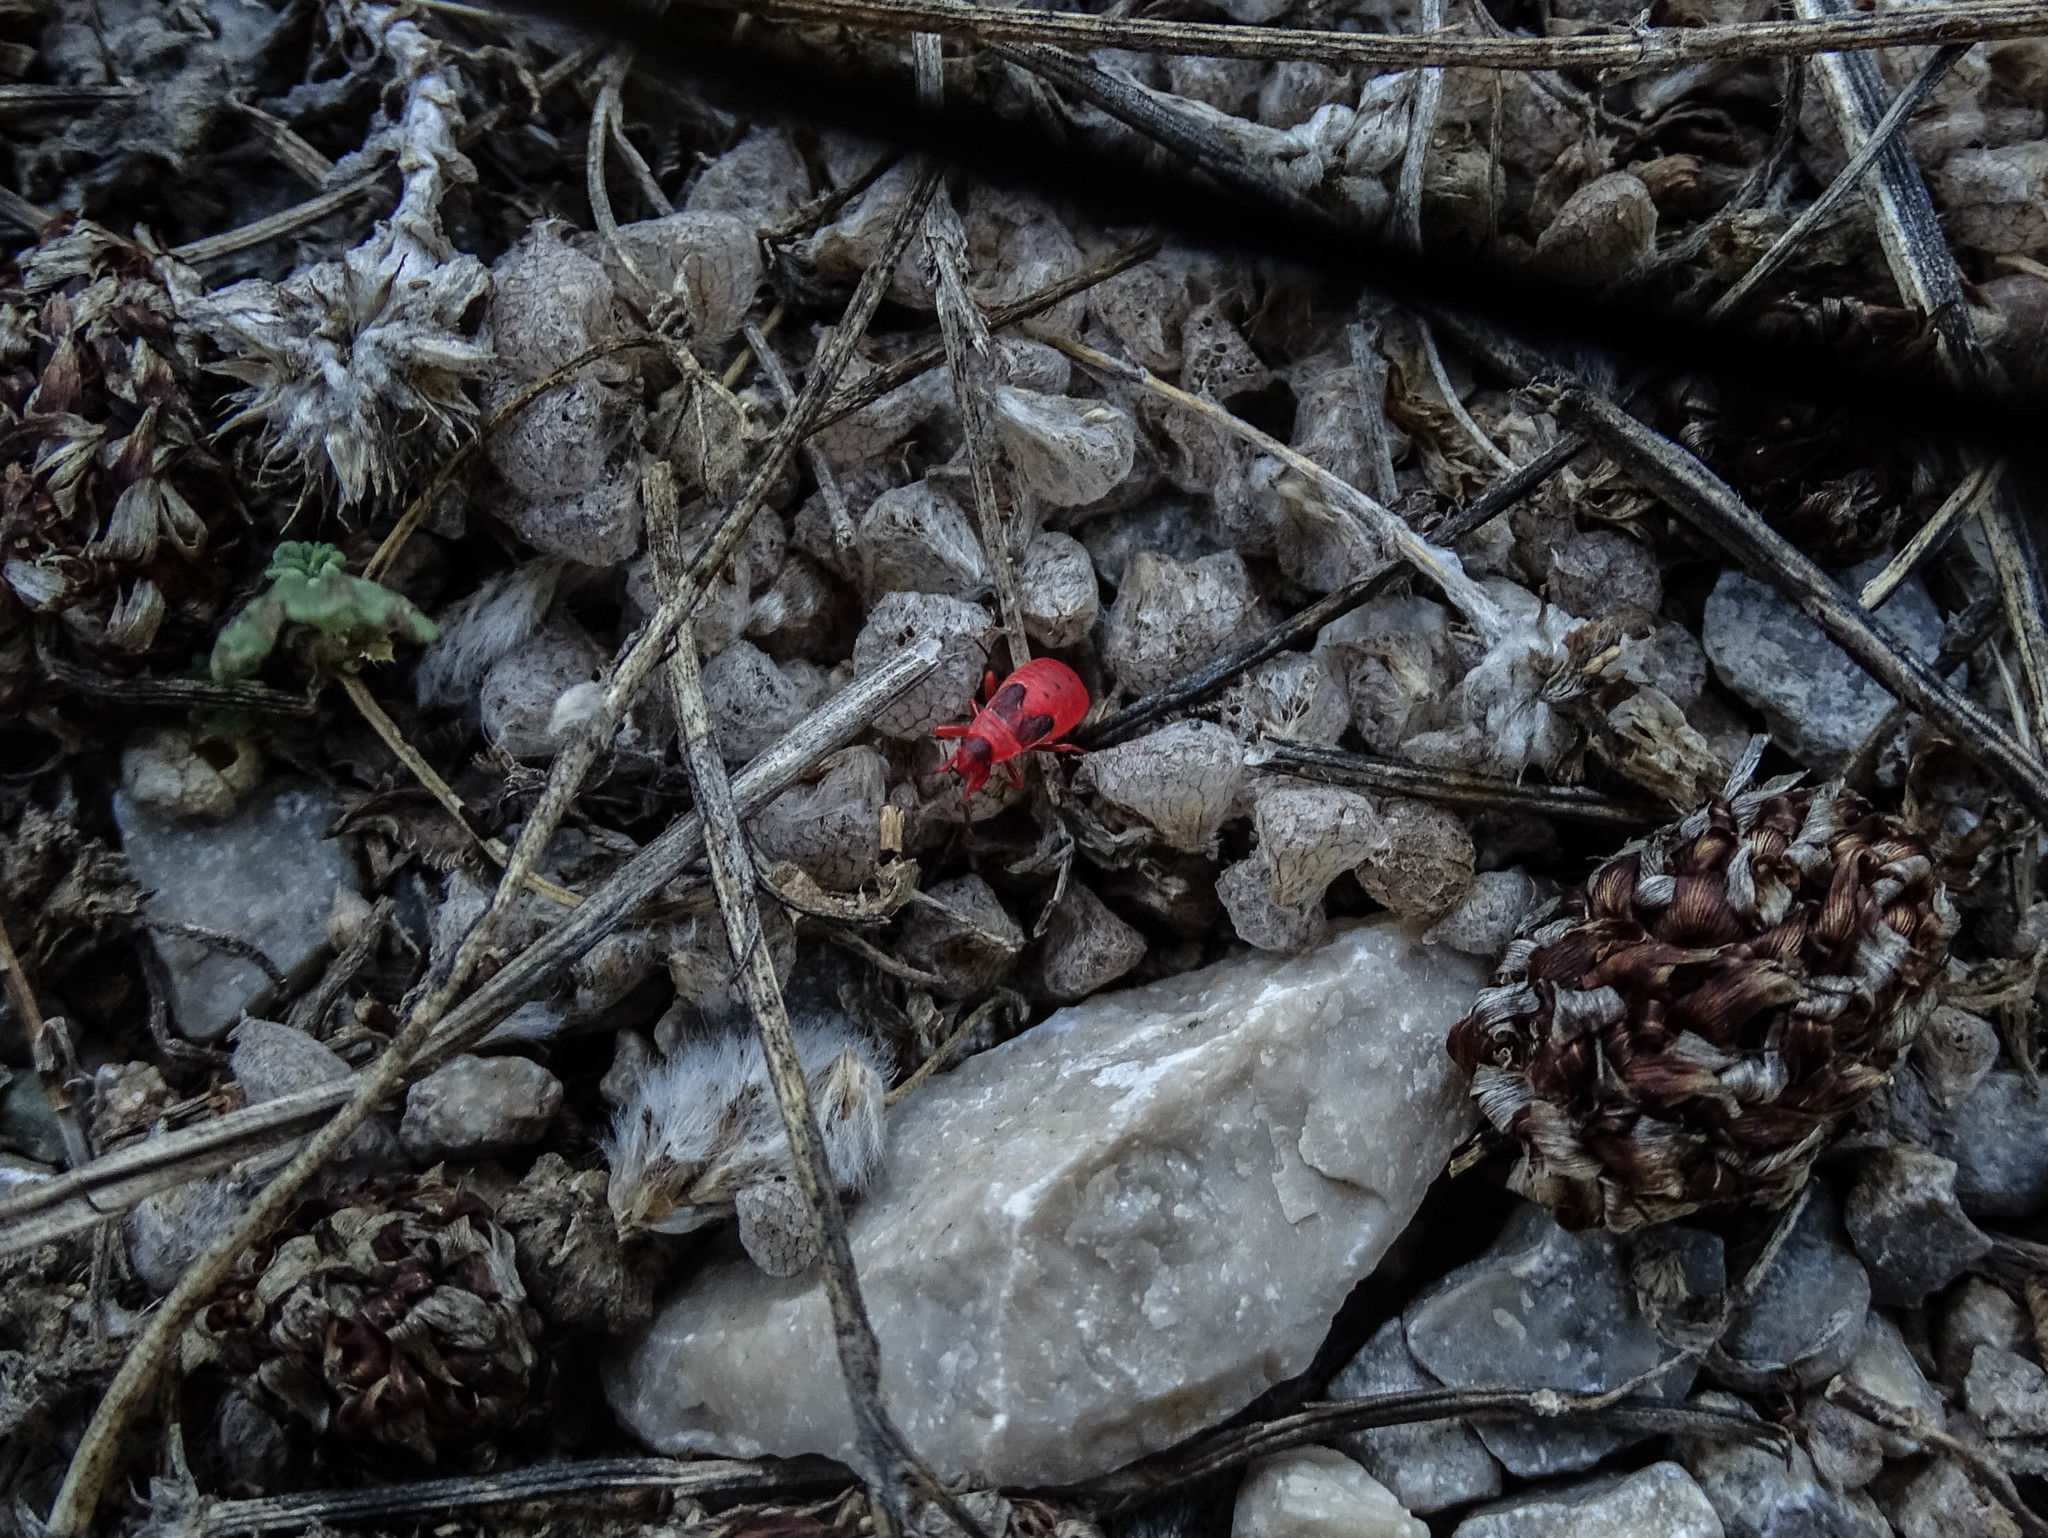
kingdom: Animalia
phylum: Arthropoda
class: Insecta
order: Hemiptera
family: Pyrrhocoridae
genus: Scantius
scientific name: Scantius aegyptius
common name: Red bug
